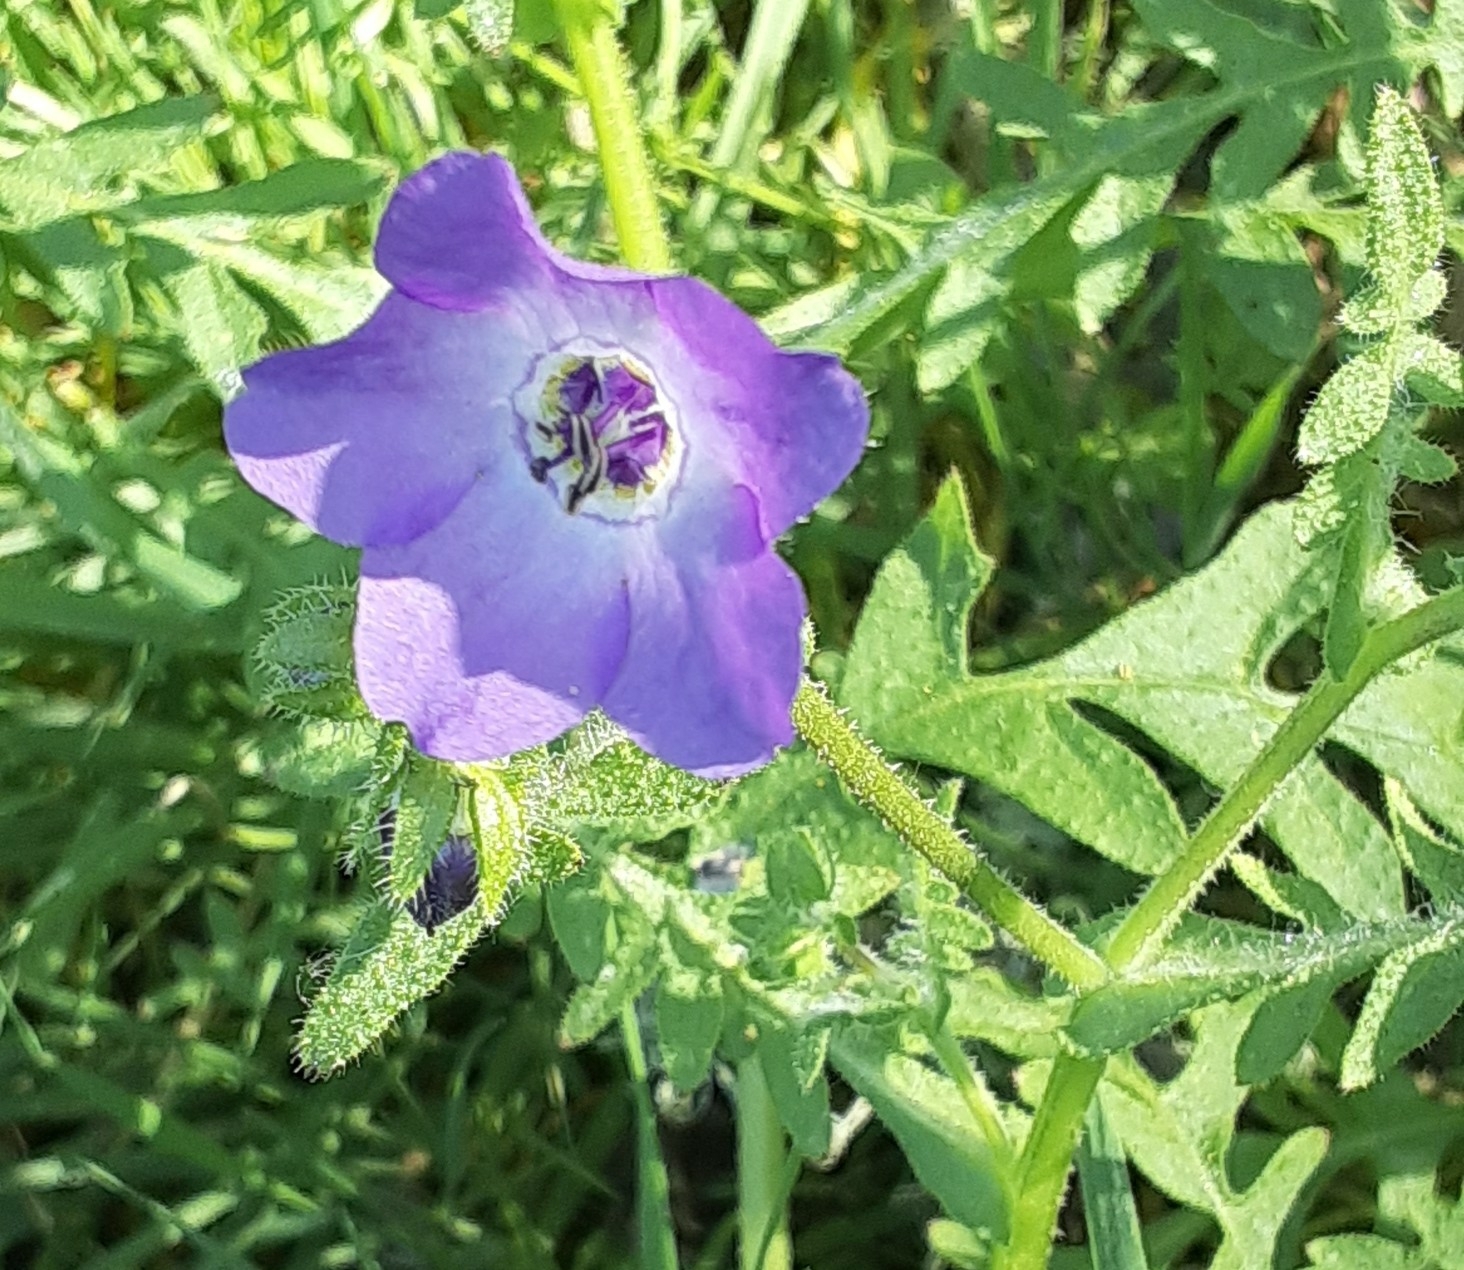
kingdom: Plantae
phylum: Tracheophyta
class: Magnoliopsida
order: Boraginales
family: Hydrophyllaceae
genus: Pholistoma
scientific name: Pholistoma auritum
